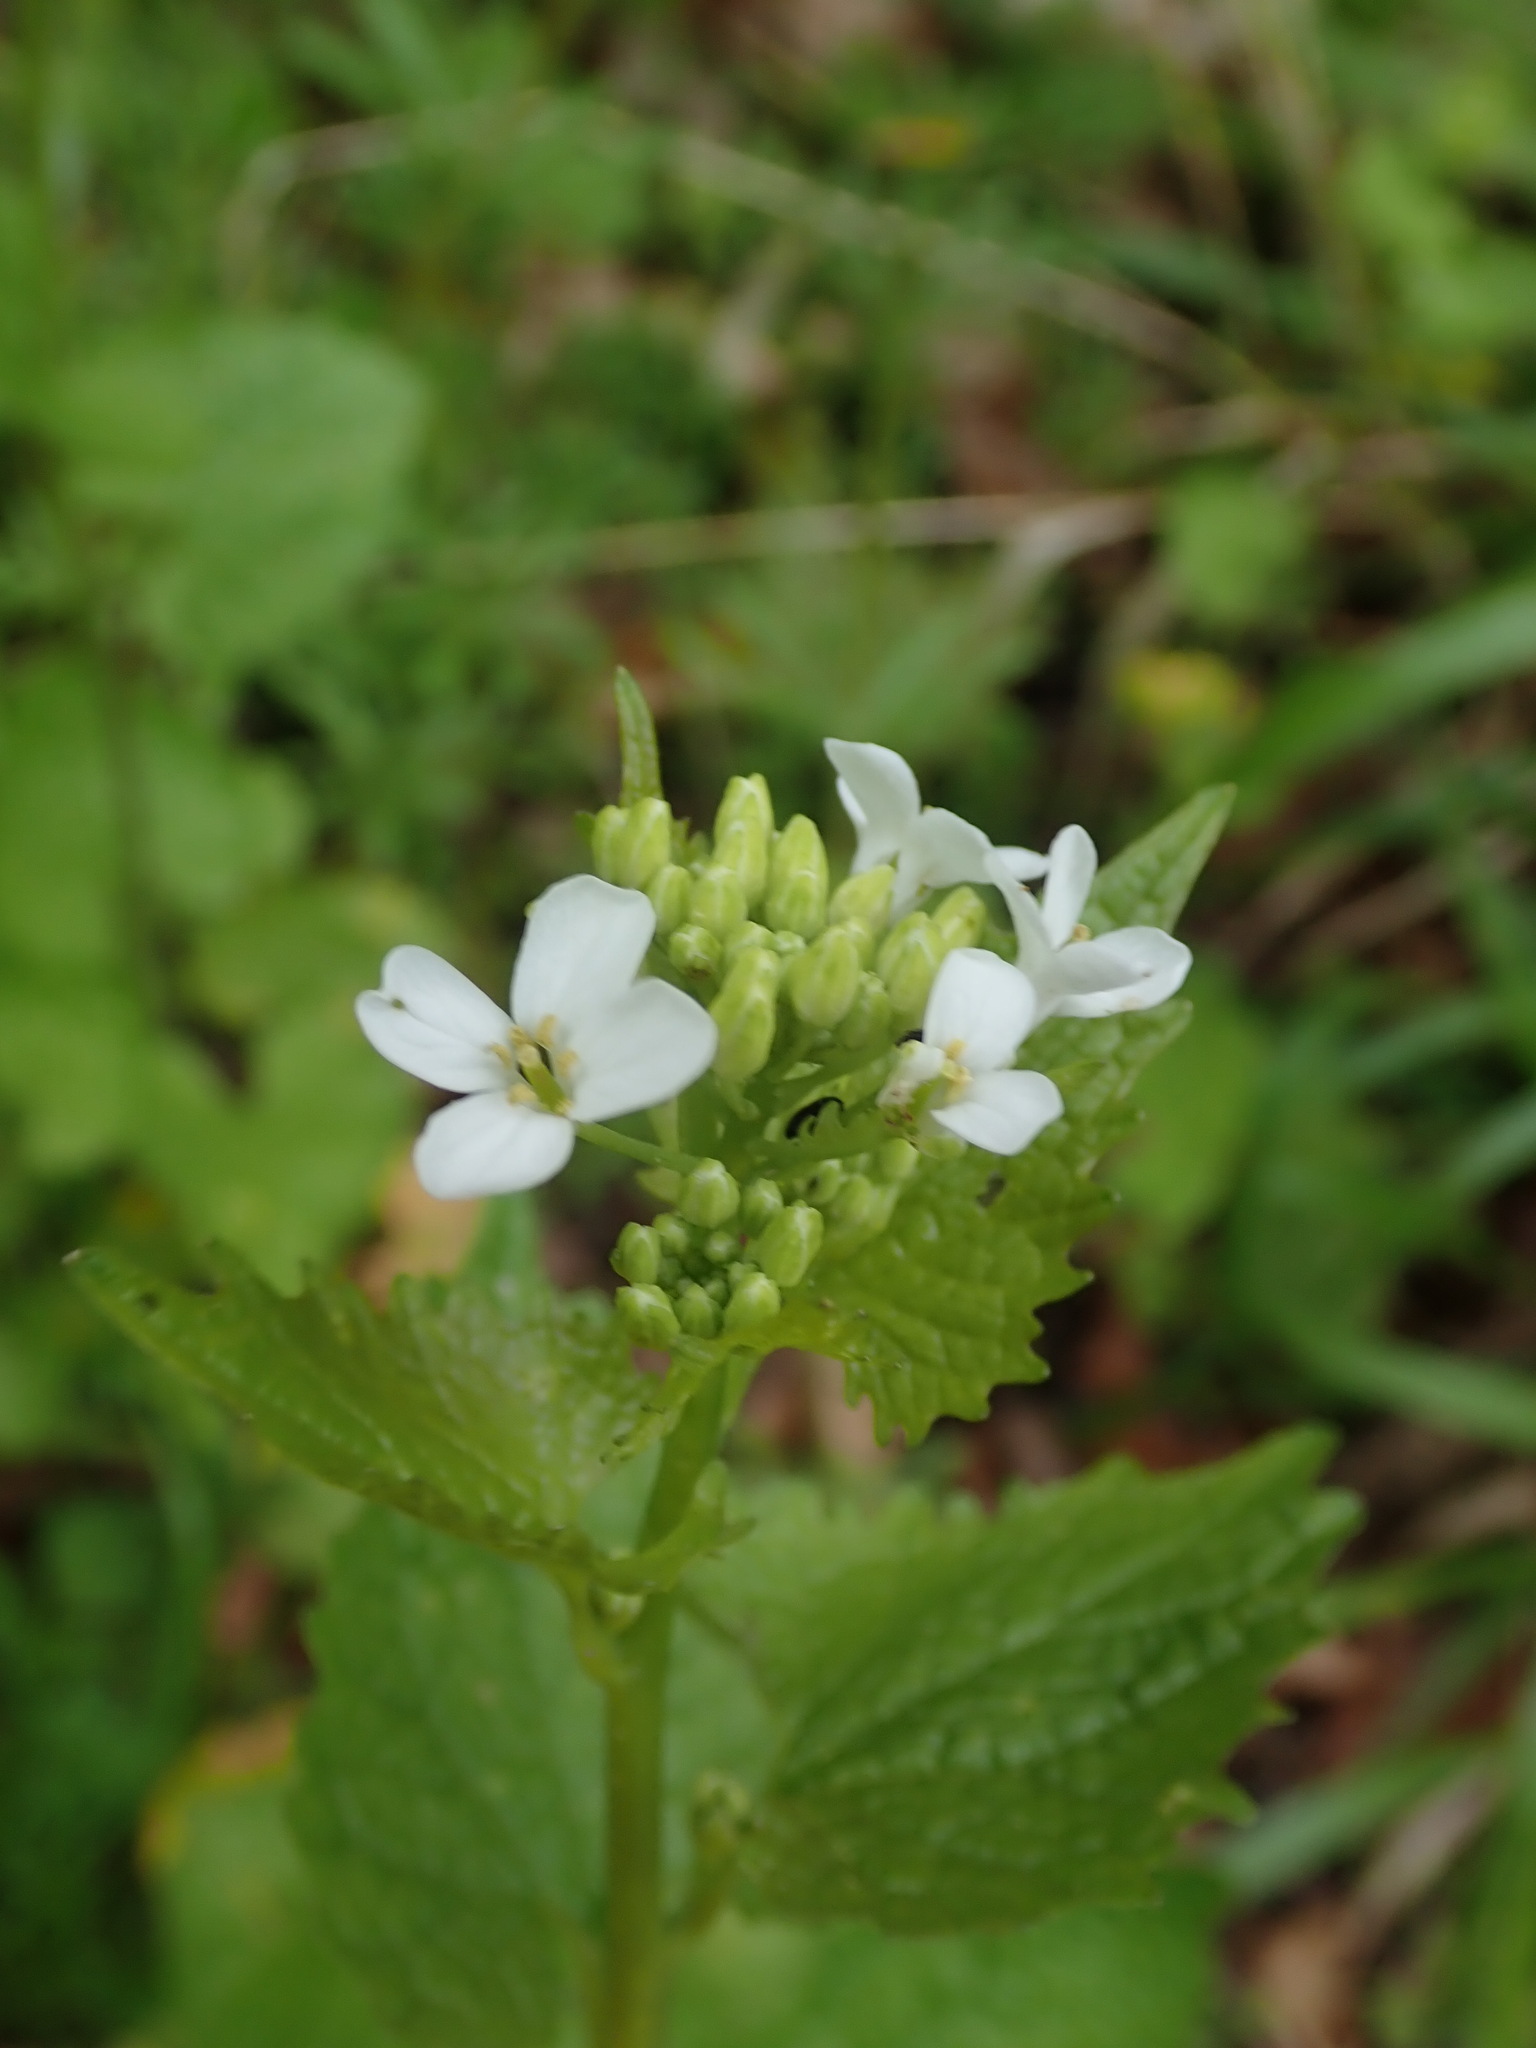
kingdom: Plantae
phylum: Tracheophyta
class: Magnoliopsida
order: Brassicales
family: Brassicaceae
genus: Alliaria
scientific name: Alliaria petiolata
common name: Garlic mustard
